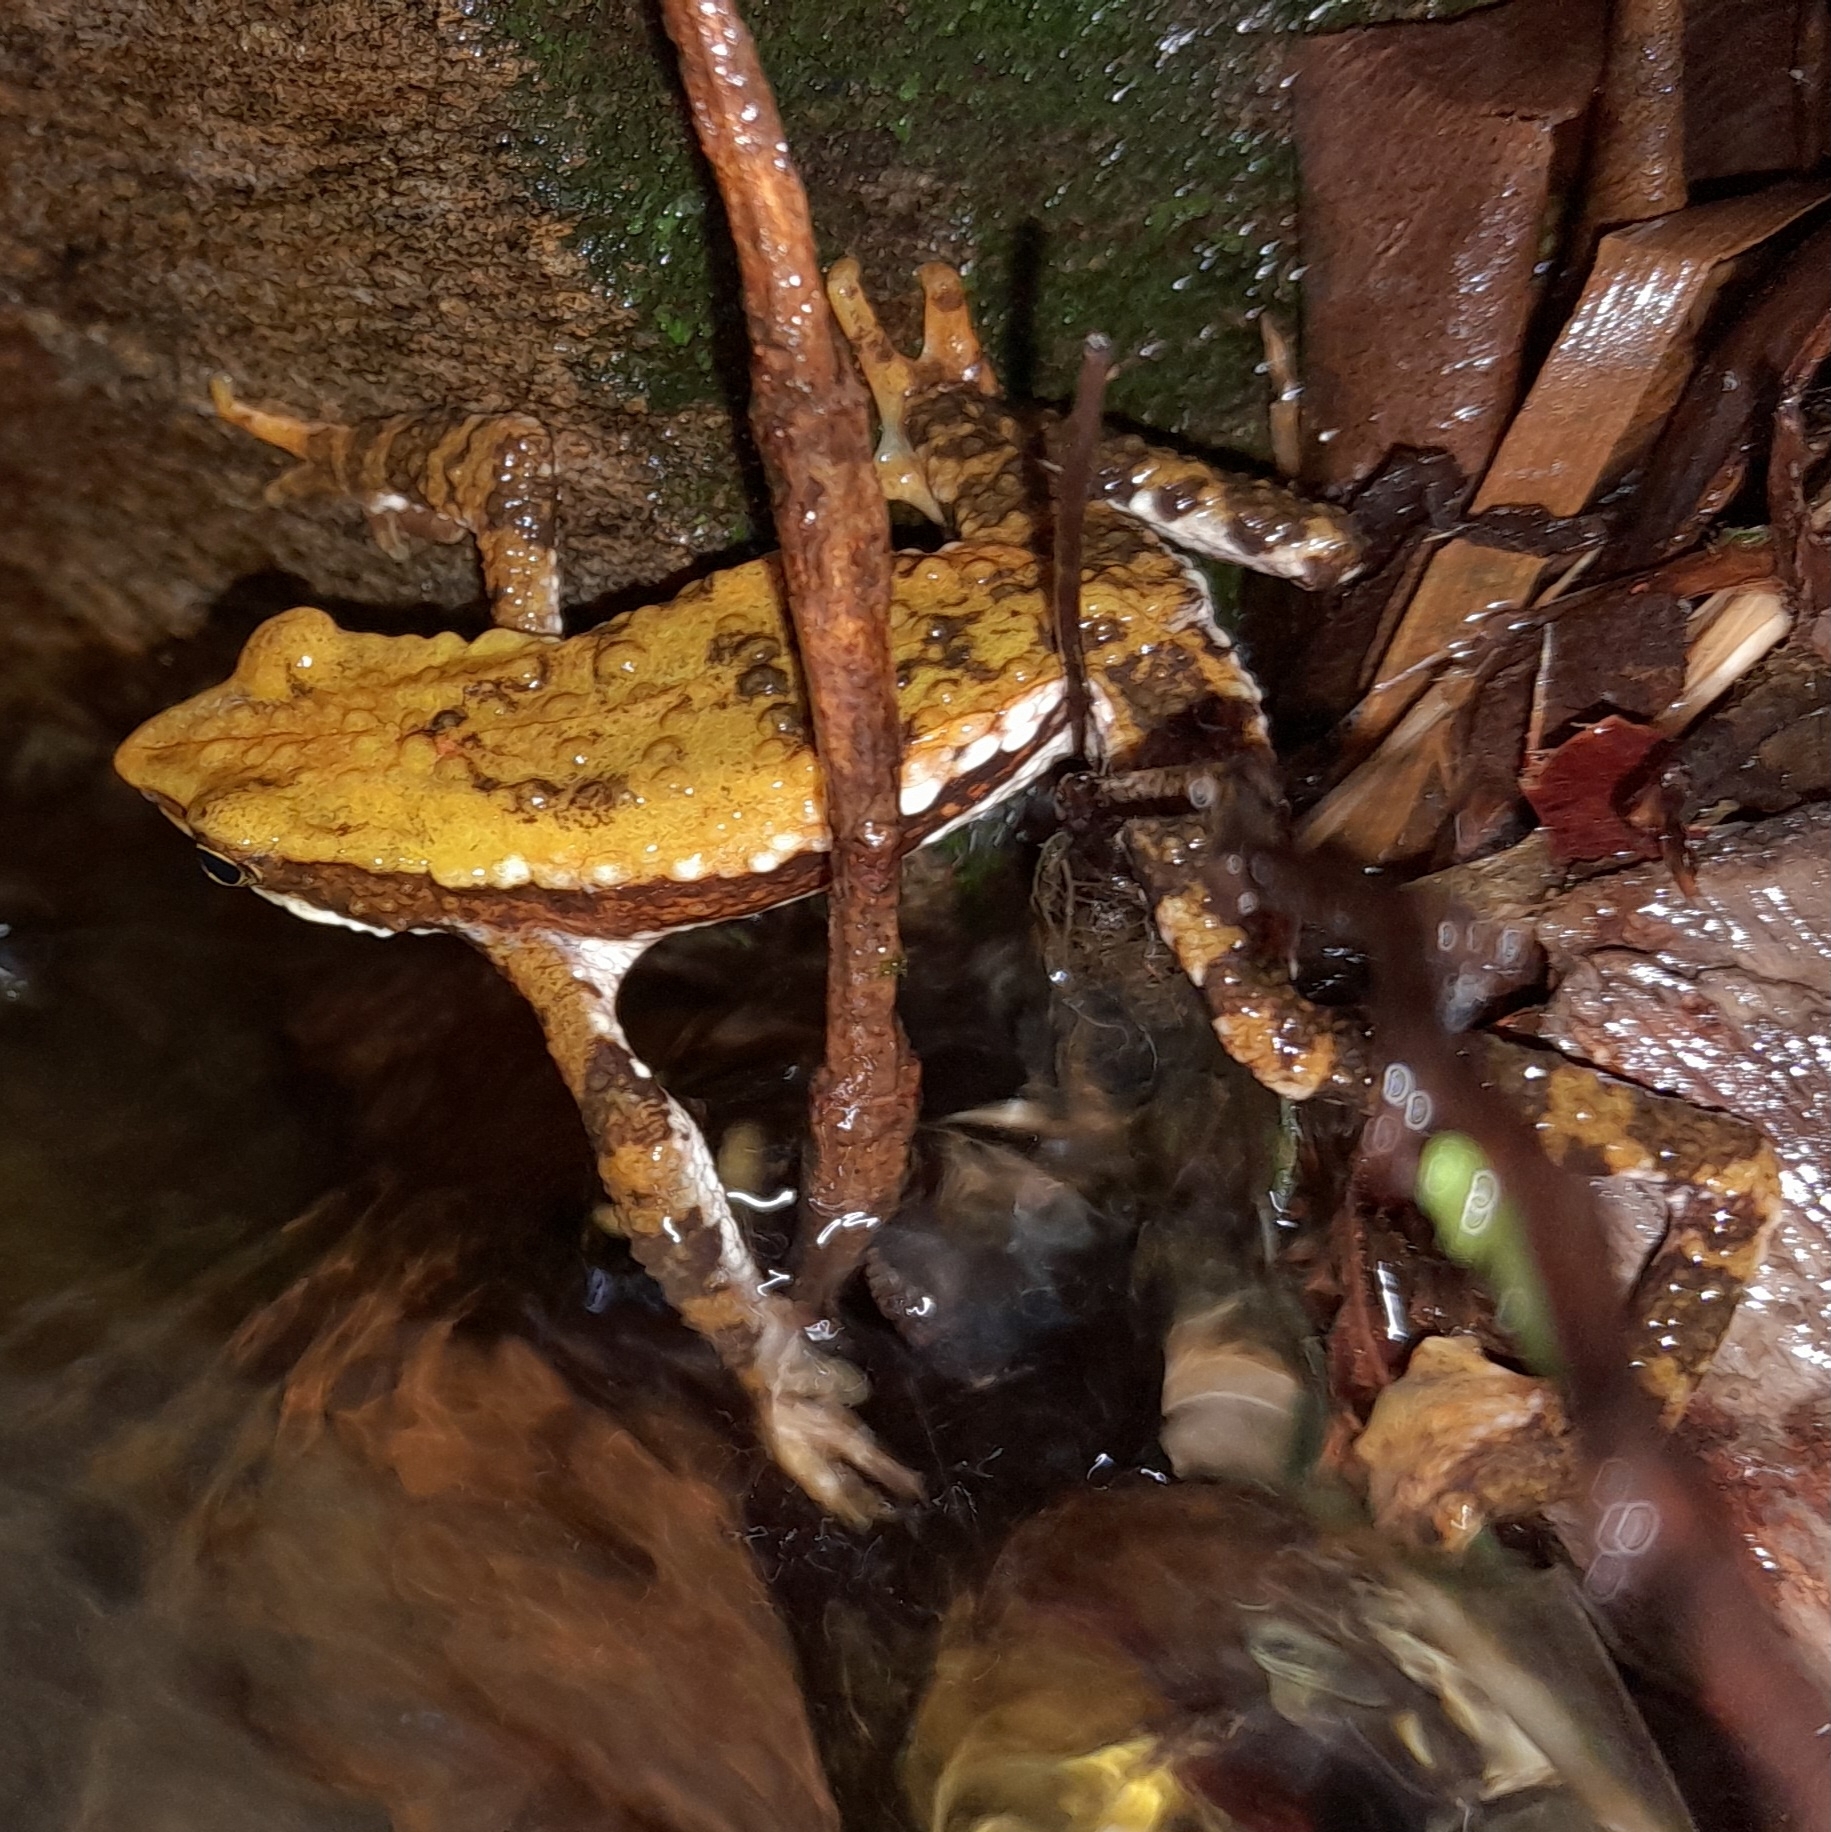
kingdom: Animalia
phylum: Chordata
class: Amphibia
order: Anura
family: Bufonidae
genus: Atelopus
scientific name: Atelopus laetissimus
